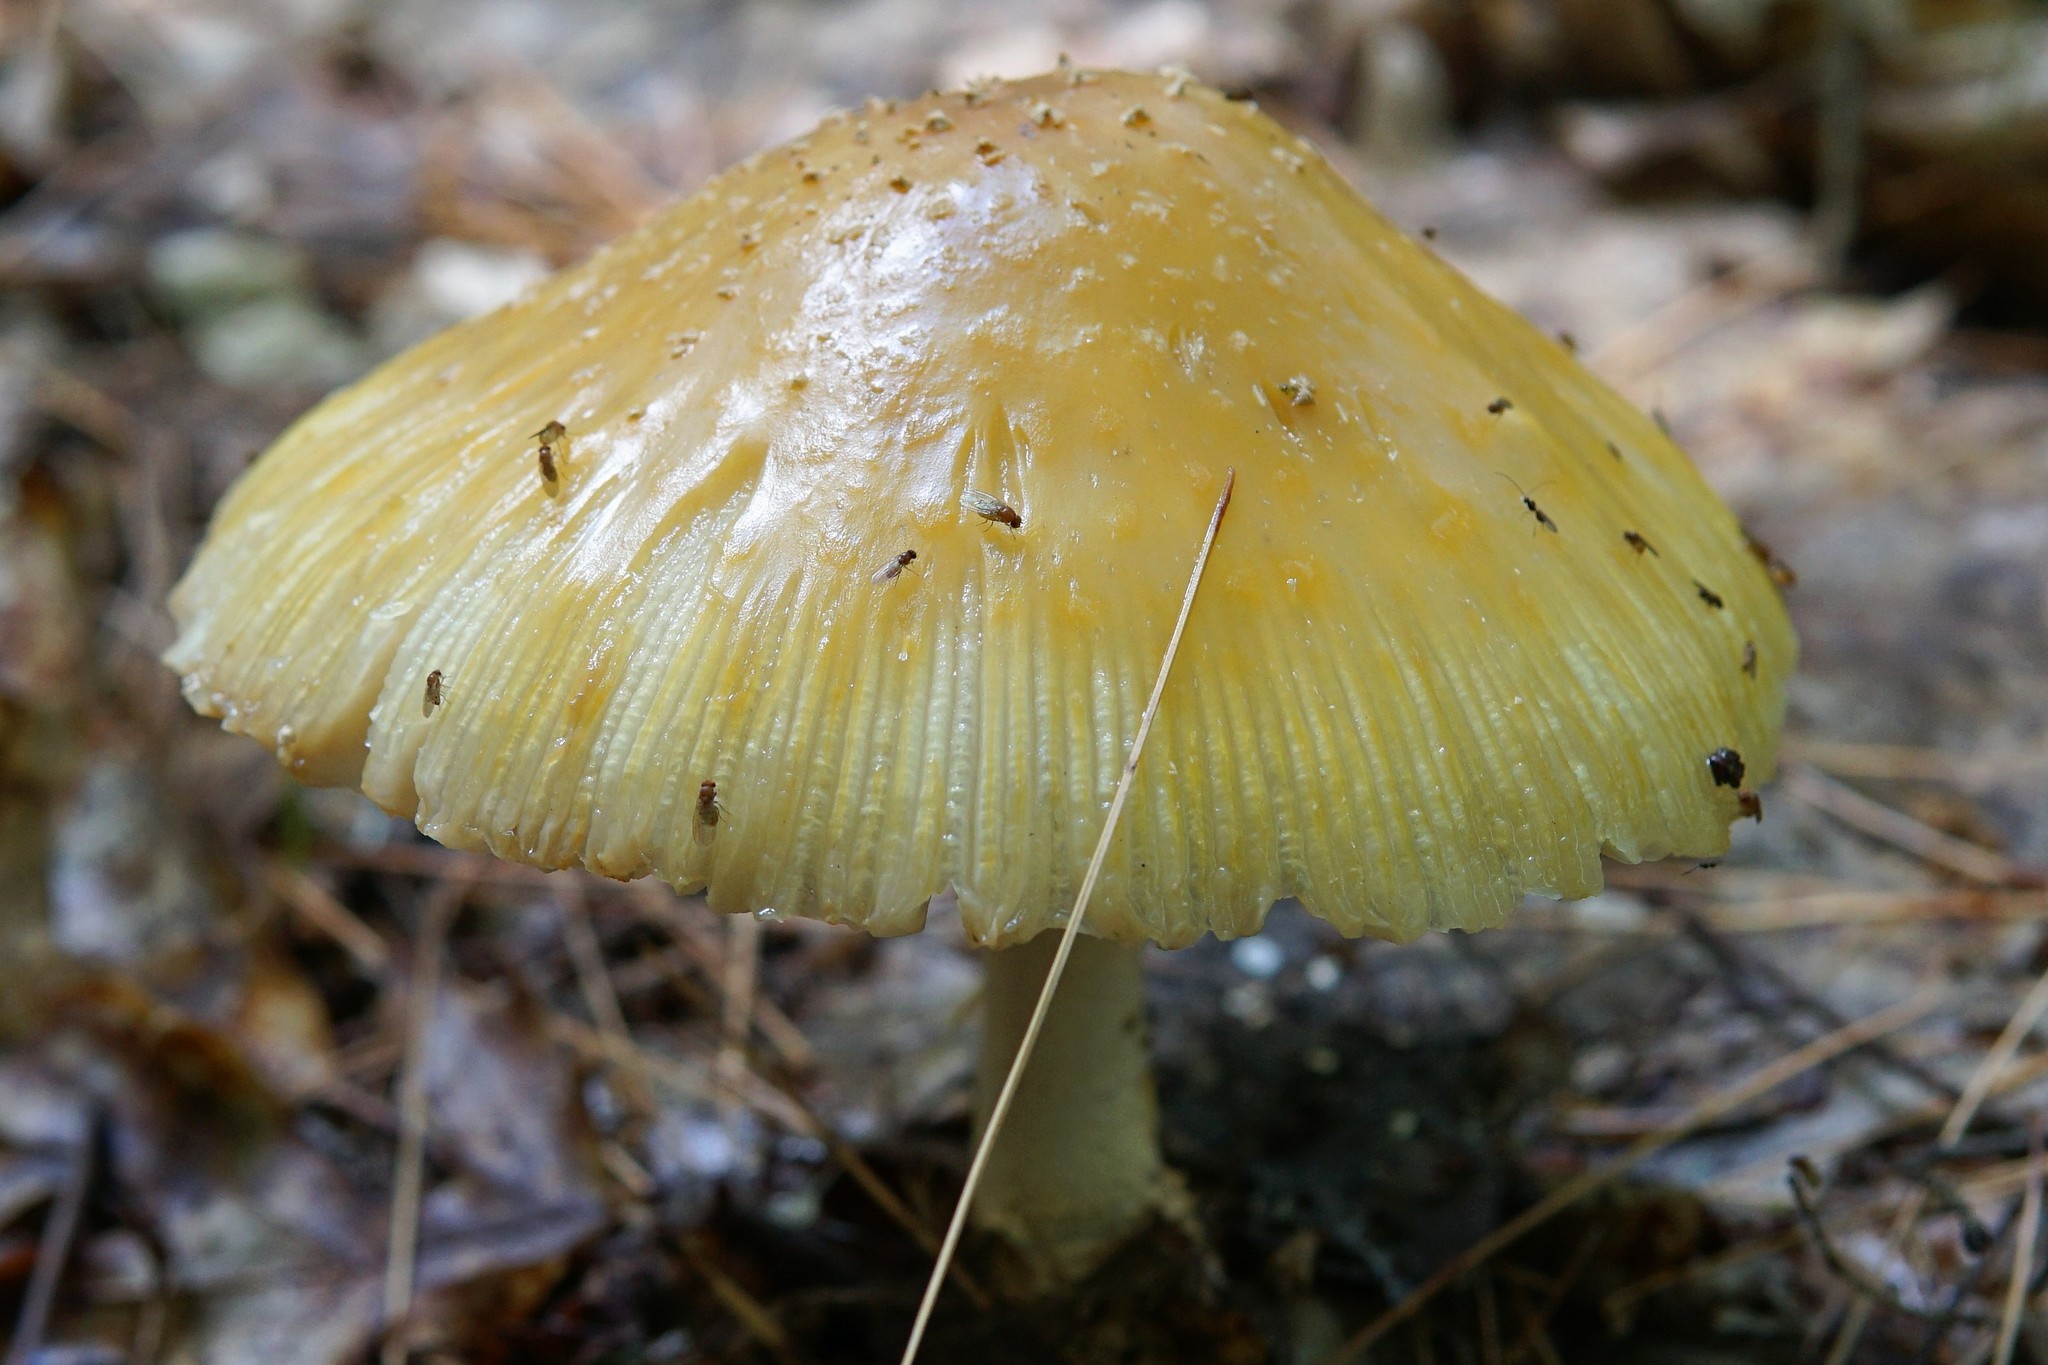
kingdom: Fungi
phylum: Basidiomycota
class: Agaricomycetes
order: Agaricales
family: Amanitaceae
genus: Amanita
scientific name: Amanita muscaria
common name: Fly agaric
